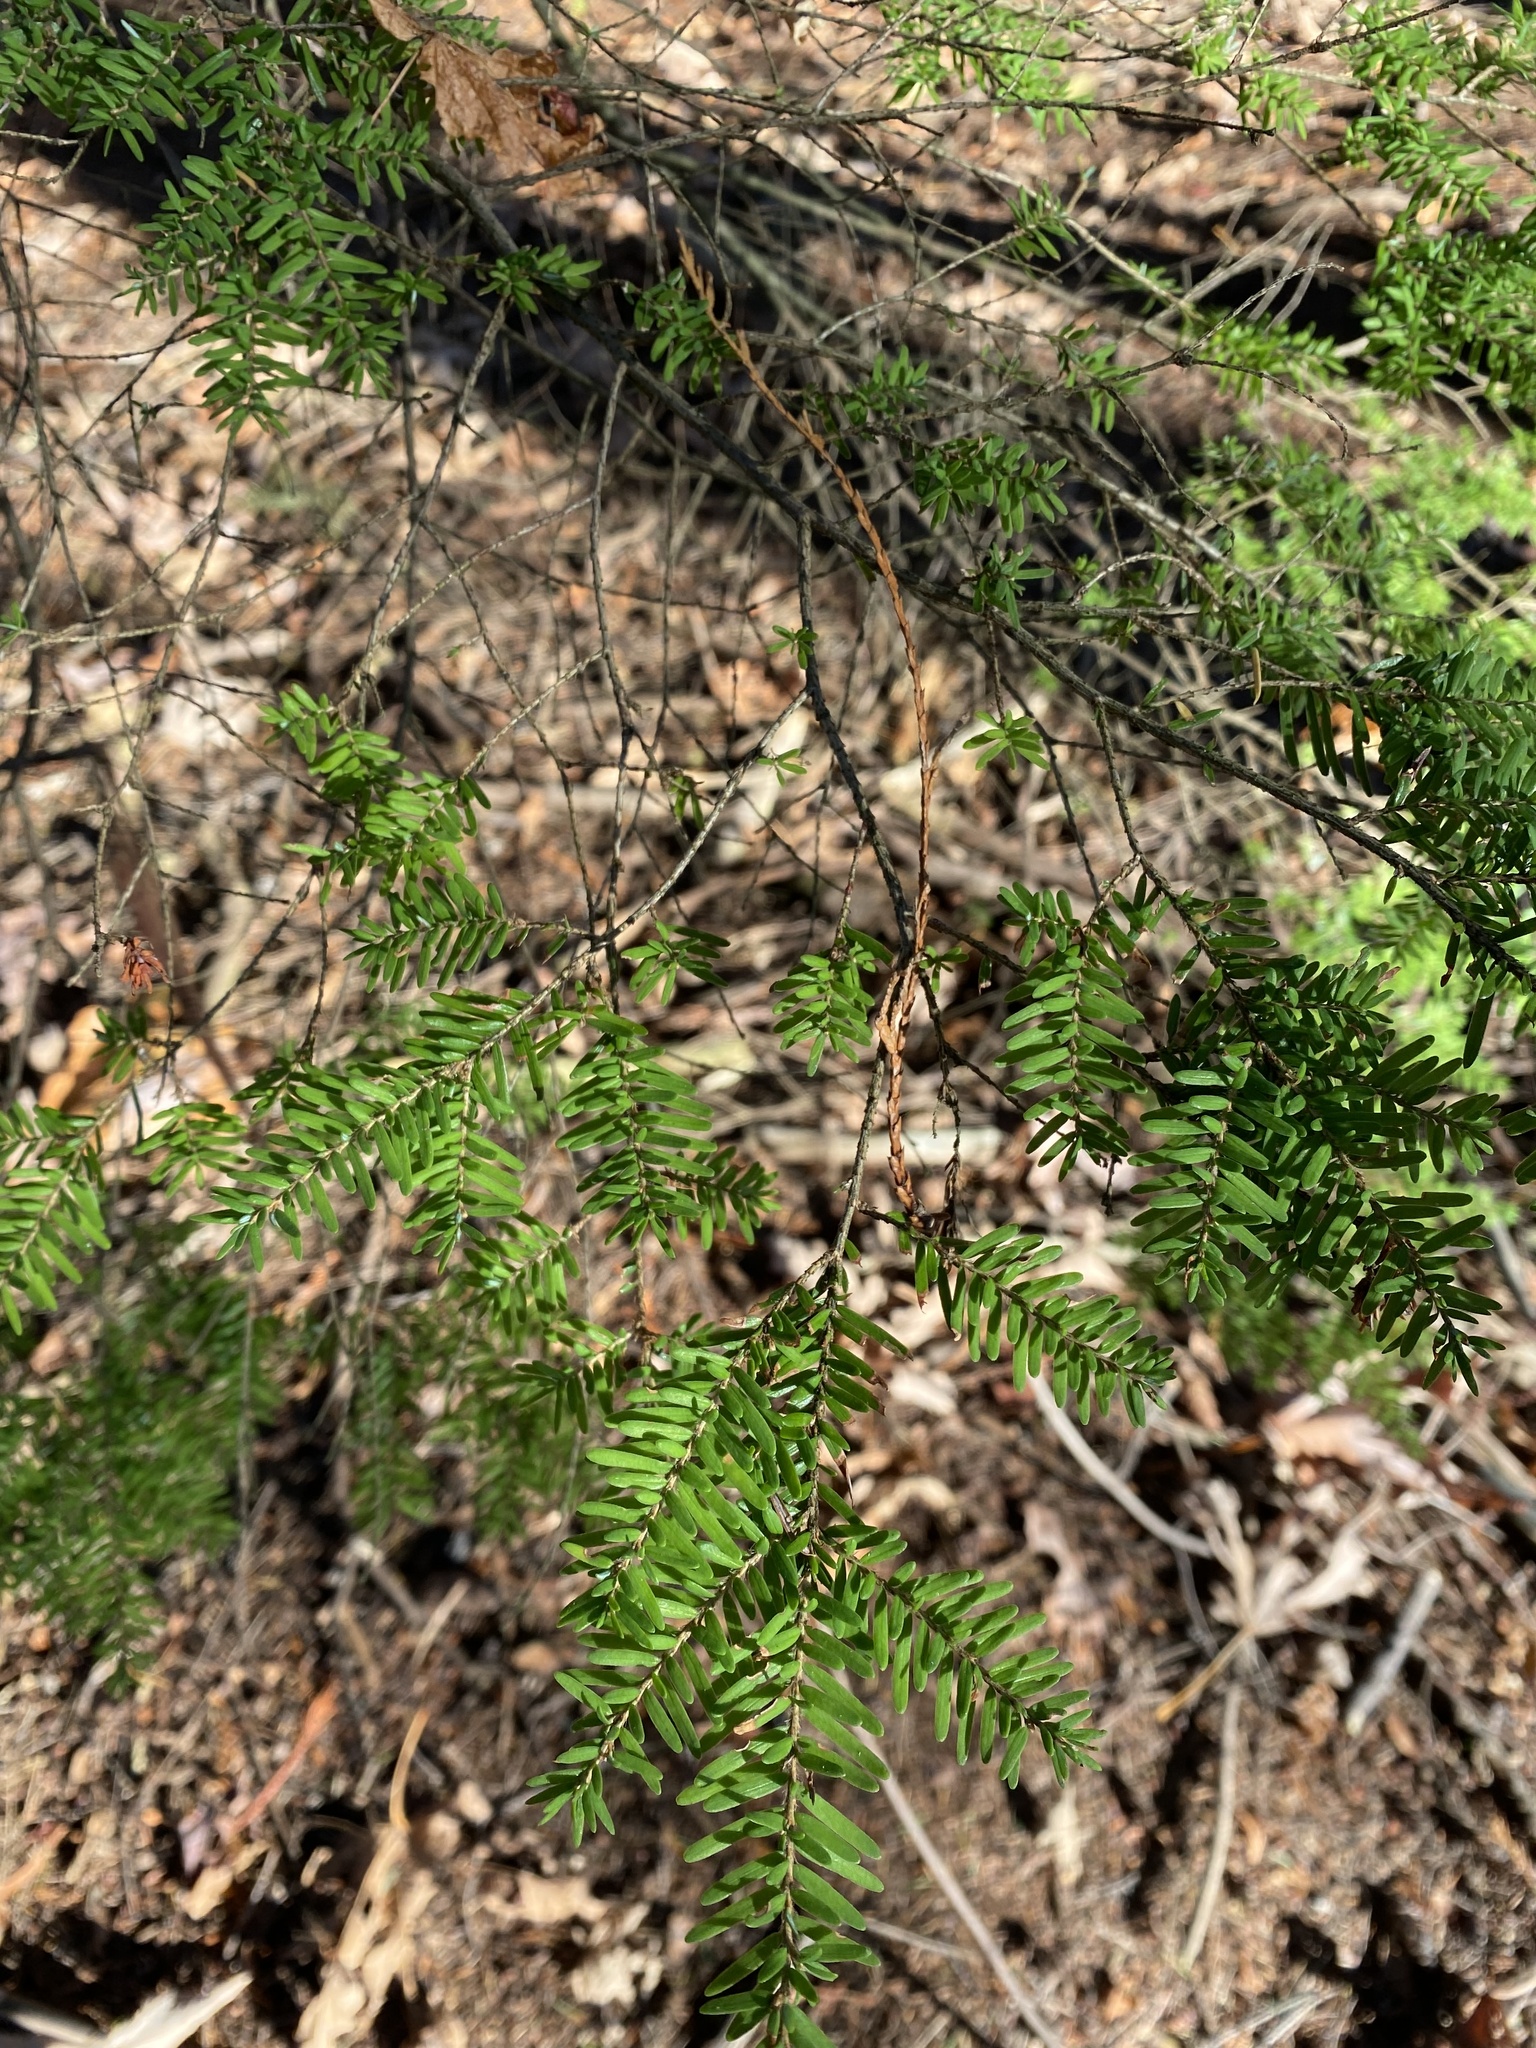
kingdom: Plantae
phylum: Tracheophyta
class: Pinopsida
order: Pinales
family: Pinaceae
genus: Tsuga
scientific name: Tsuga heterophylla
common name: Western hemlock
